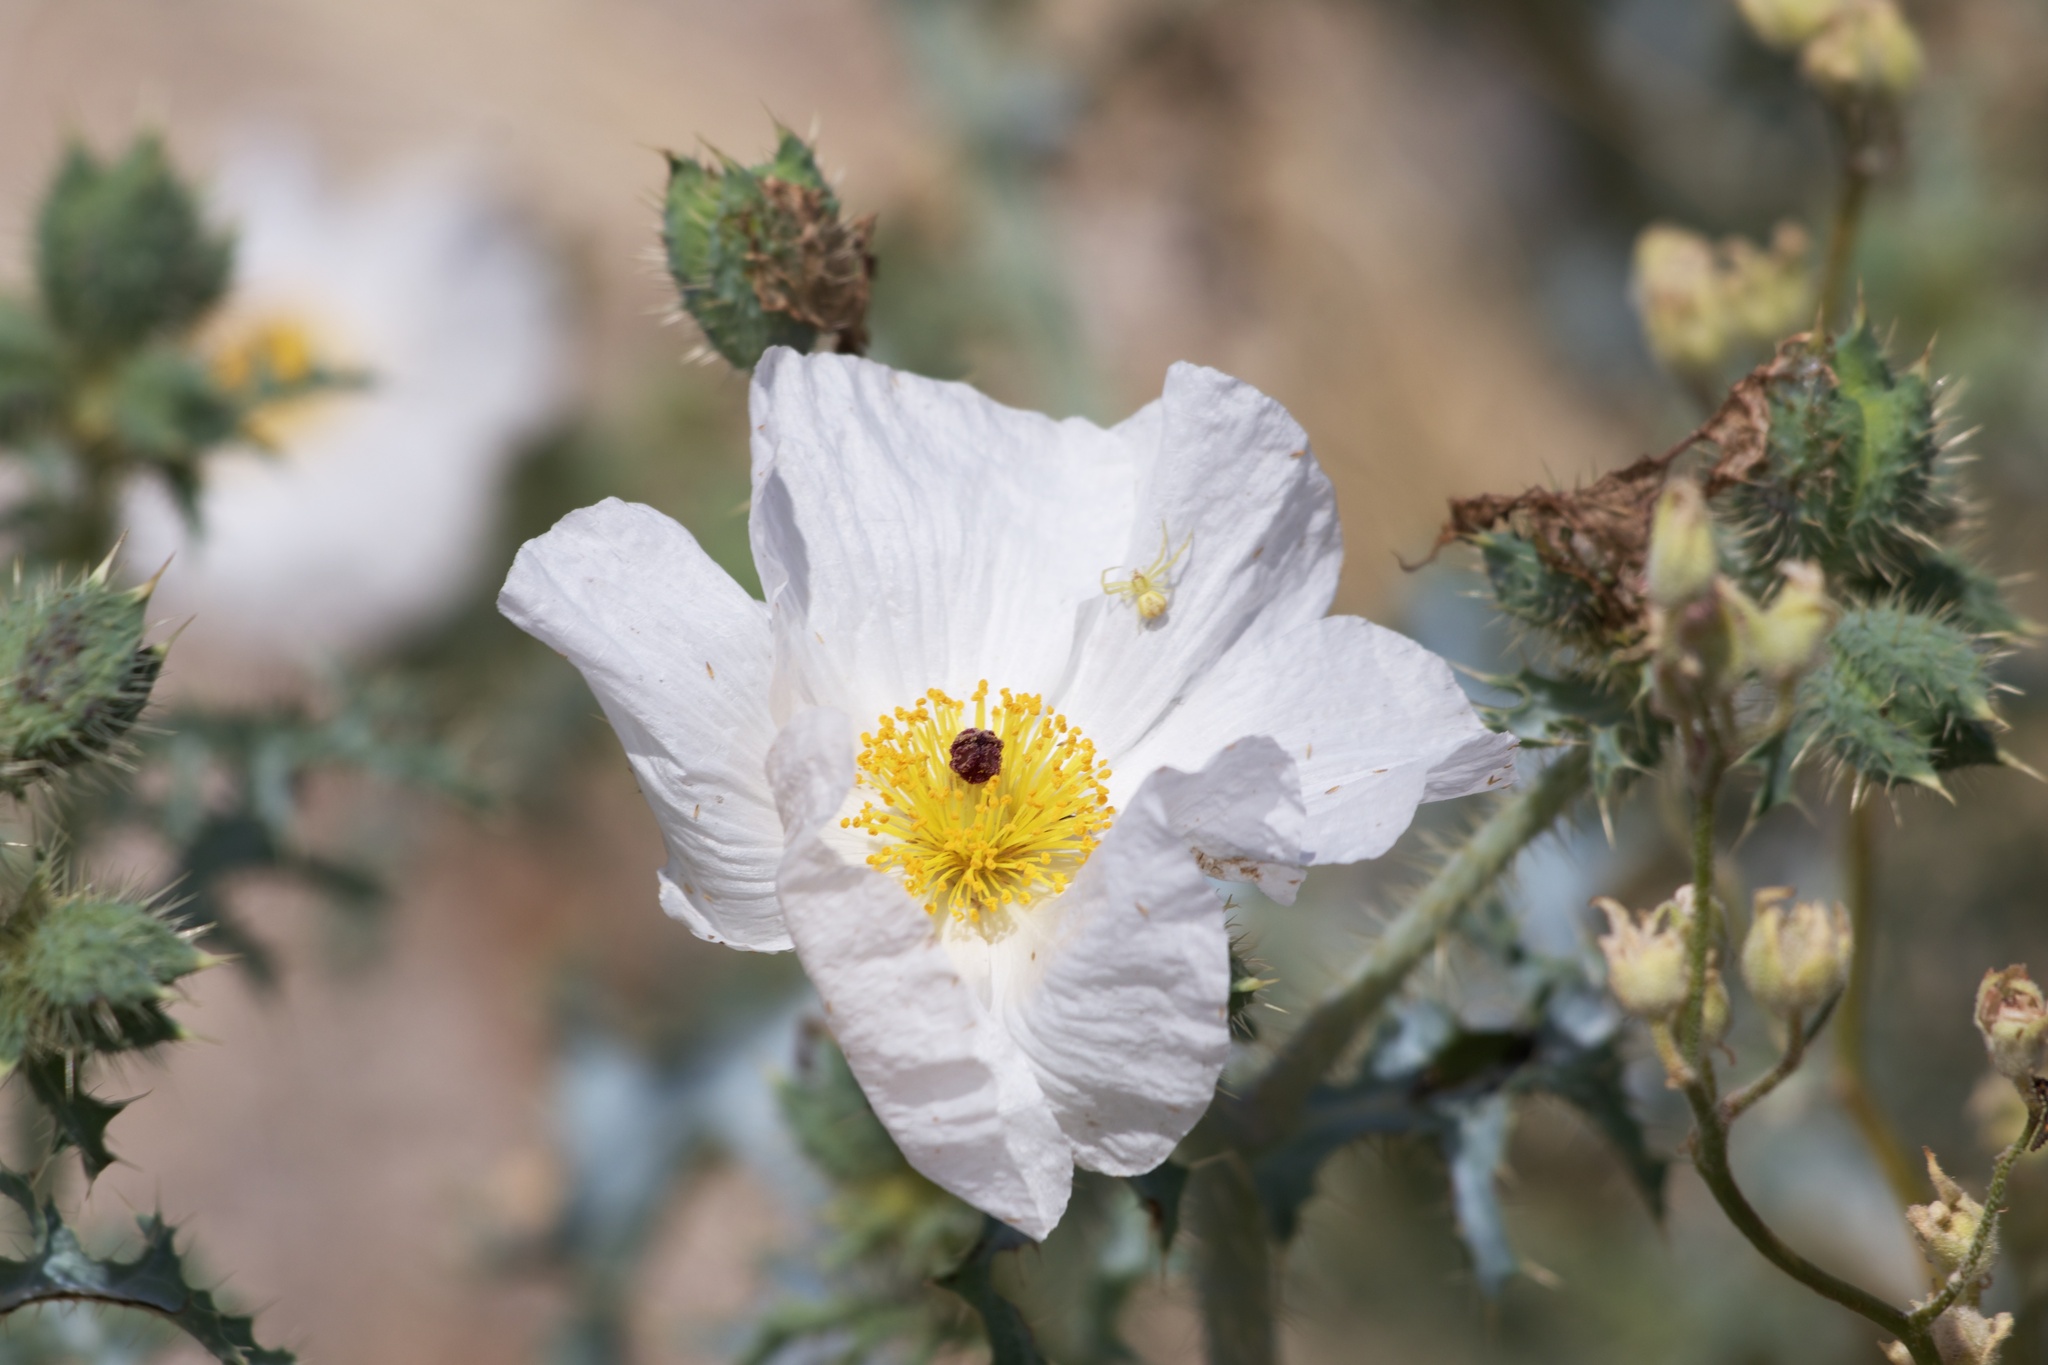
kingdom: Plantae
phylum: Tracheophyta
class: Magnoliopsida
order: Ranunculales
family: Papaveraceae
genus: Argemone
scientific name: Argemone munita
